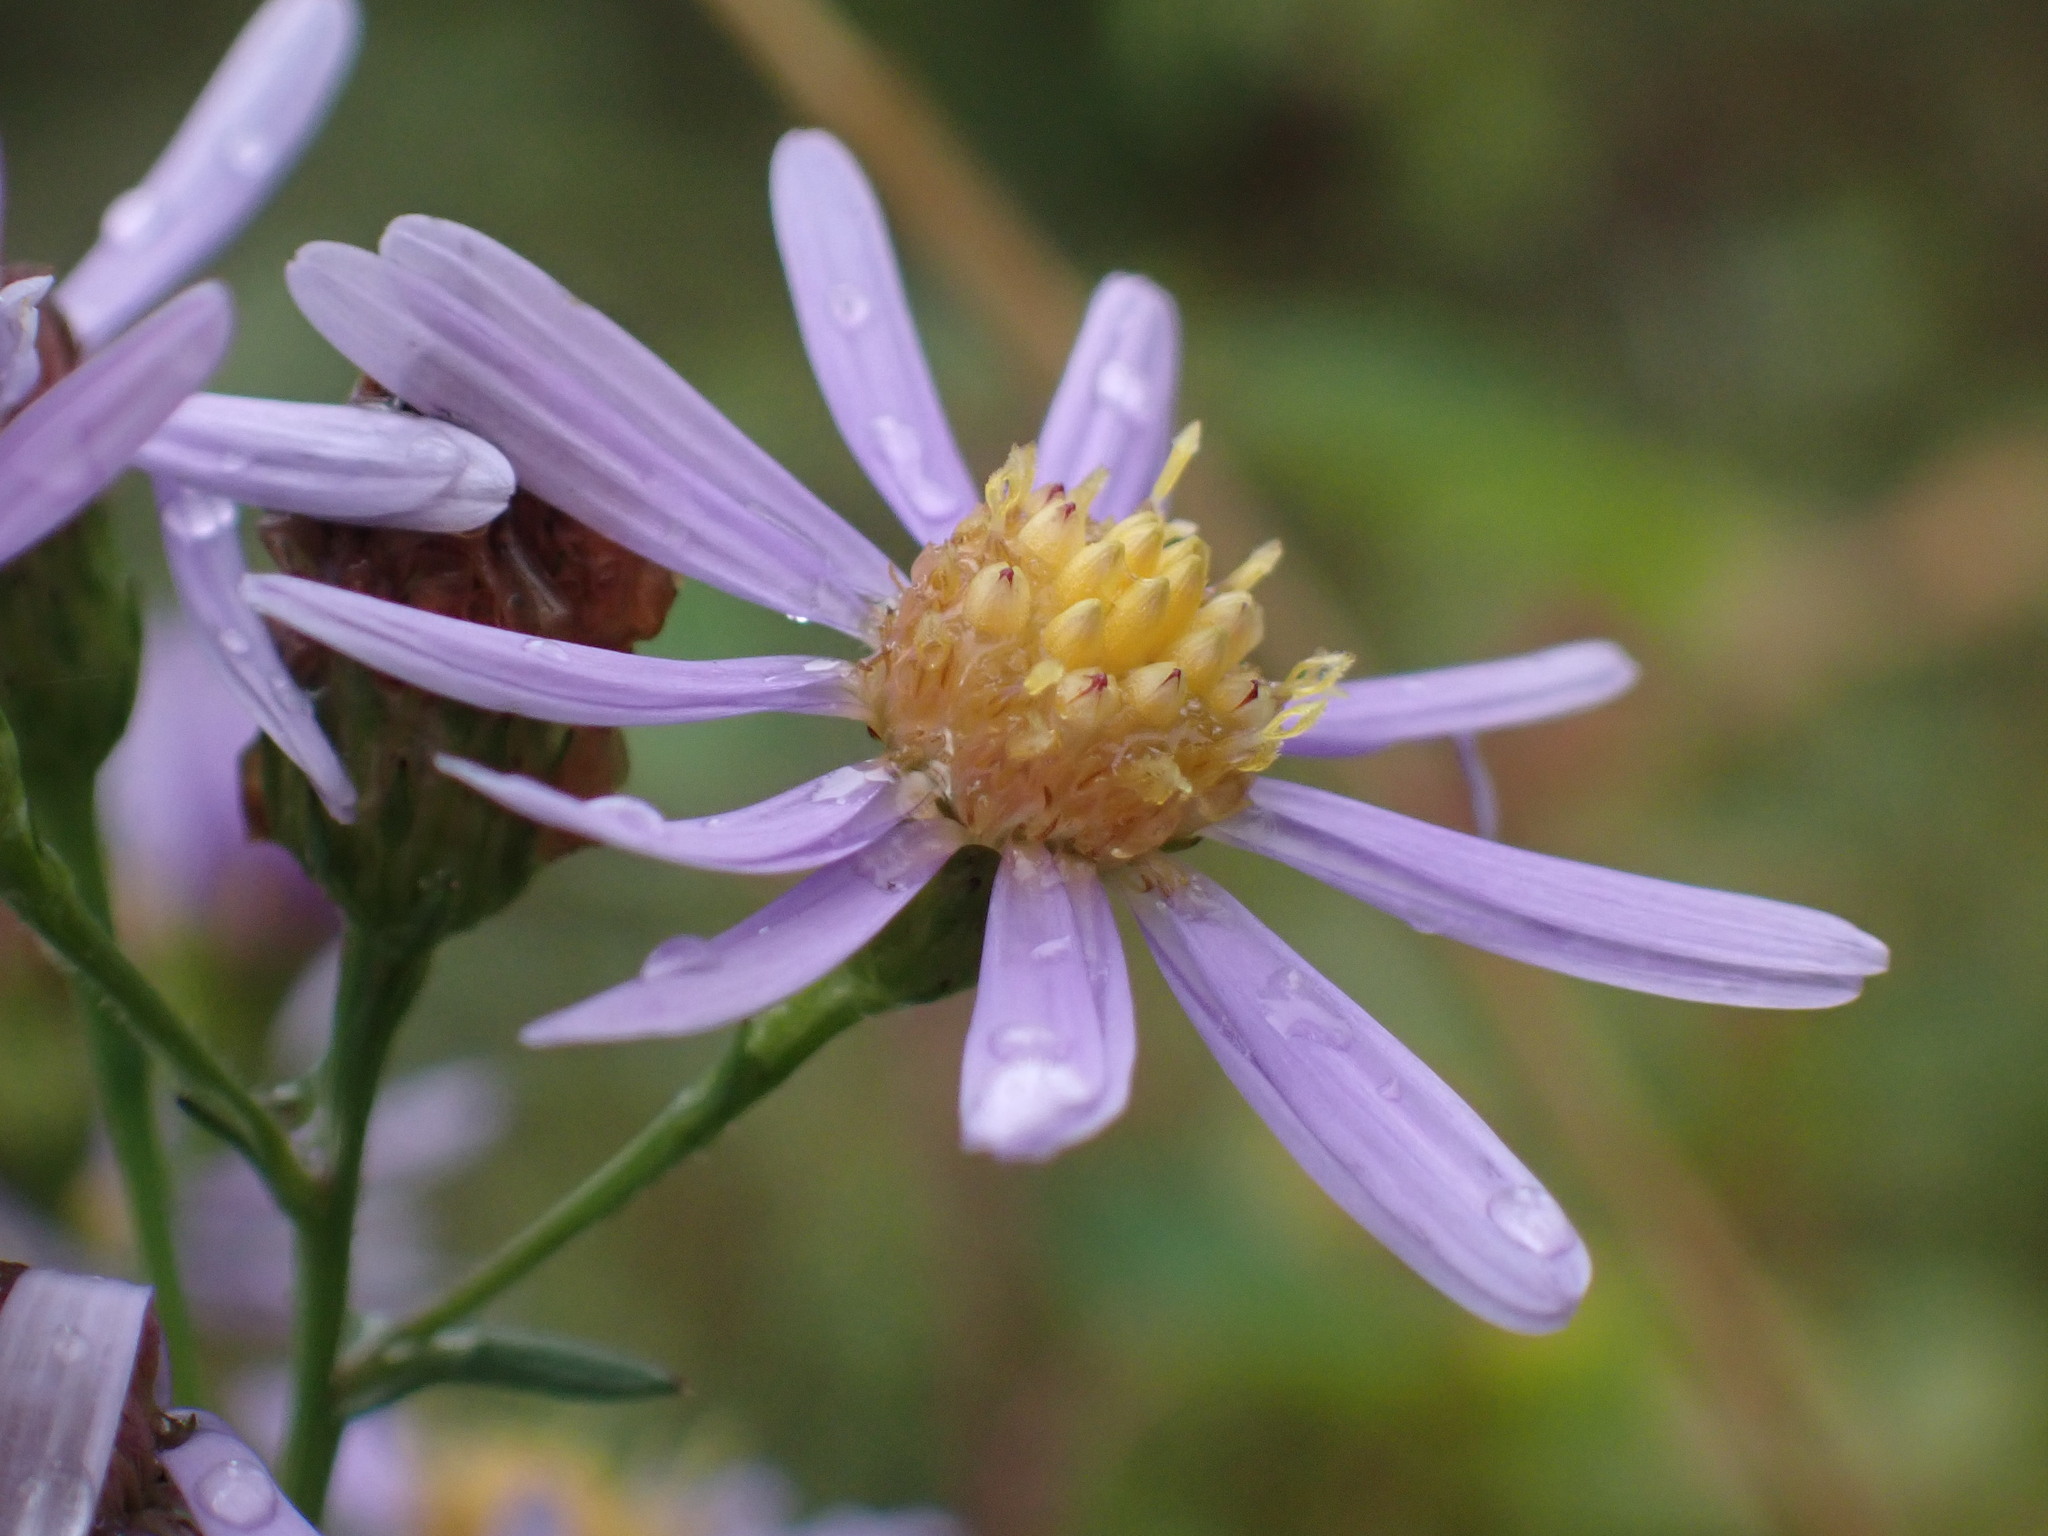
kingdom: Plantae
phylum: Tracheophyta
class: Magnoliopsida
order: Asterales
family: Asteraceae
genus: Symphyotrichum
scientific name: Symphyotrichum laeve
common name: Glaucous aster
